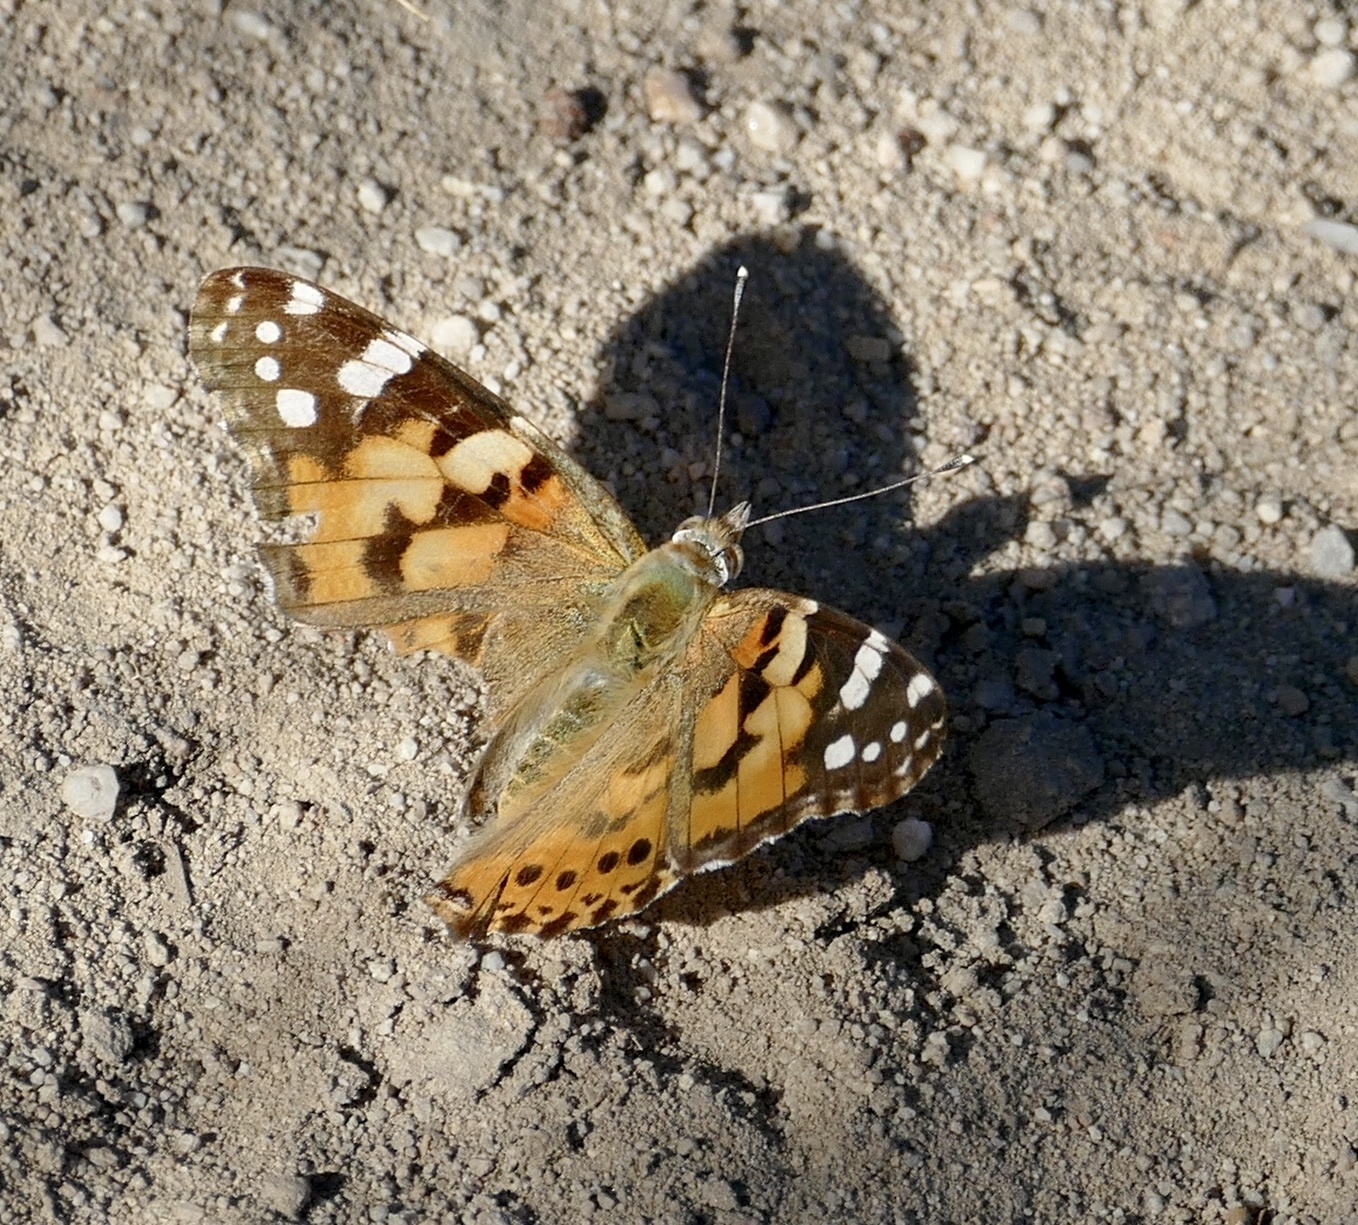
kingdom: Animalia
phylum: Arthropoda
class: Insecta
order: Lepidoptera
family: Nymphalidae
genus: Vanessa
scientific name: Vanessa cardui
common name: Painted lady
